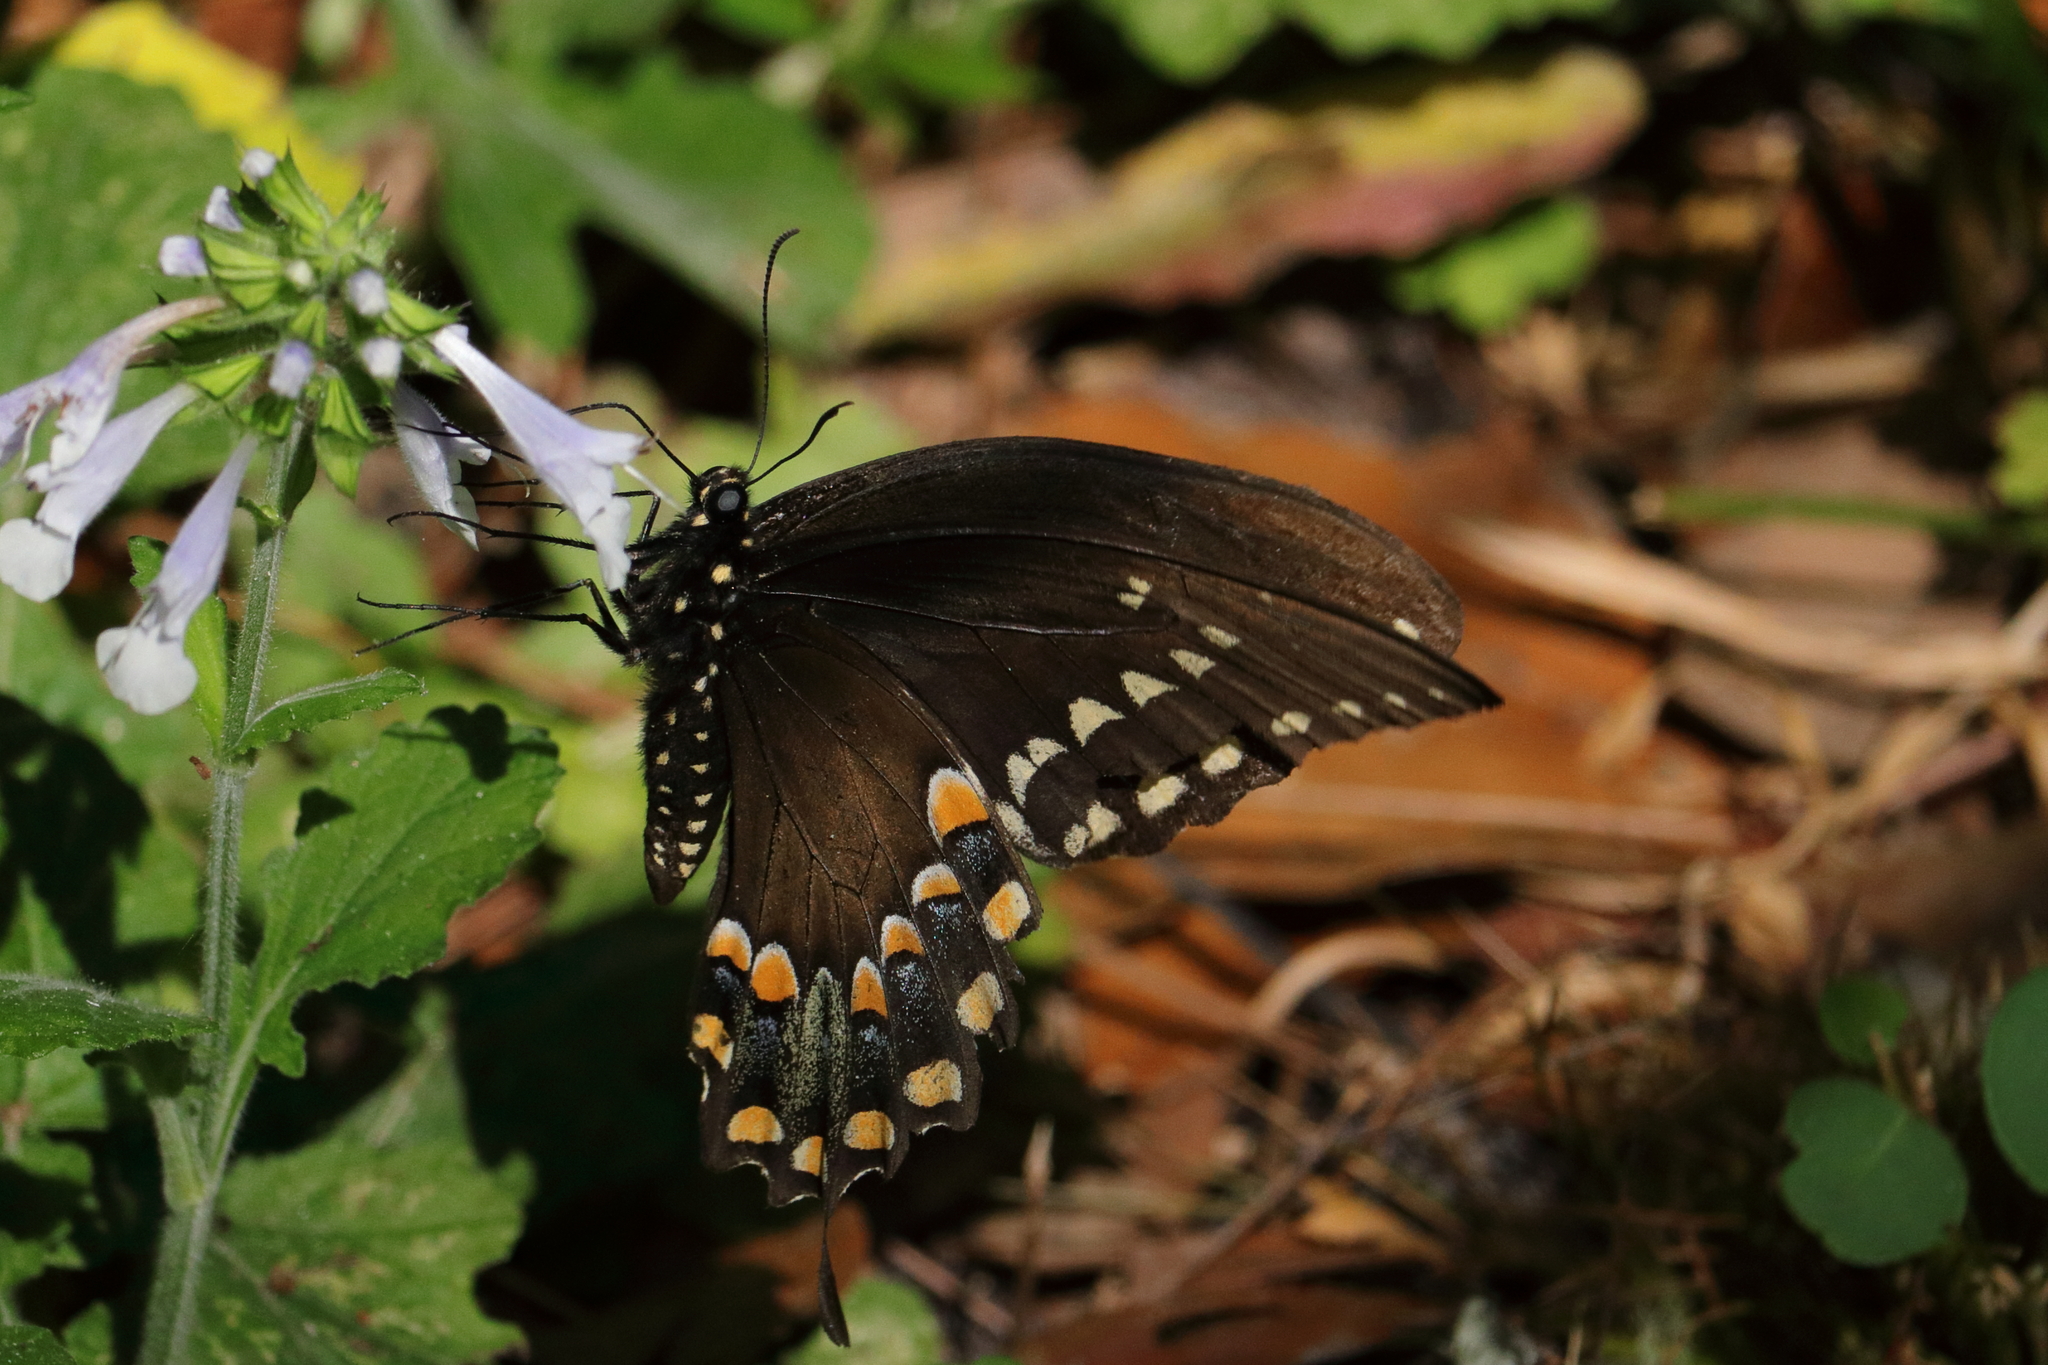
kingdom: Animalia
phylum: Arthropoda
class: Insecta
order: Lepidoptera
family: Papilionidae
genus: Papilio
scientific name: Papilio troilus
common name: Spicebush swallowtail
